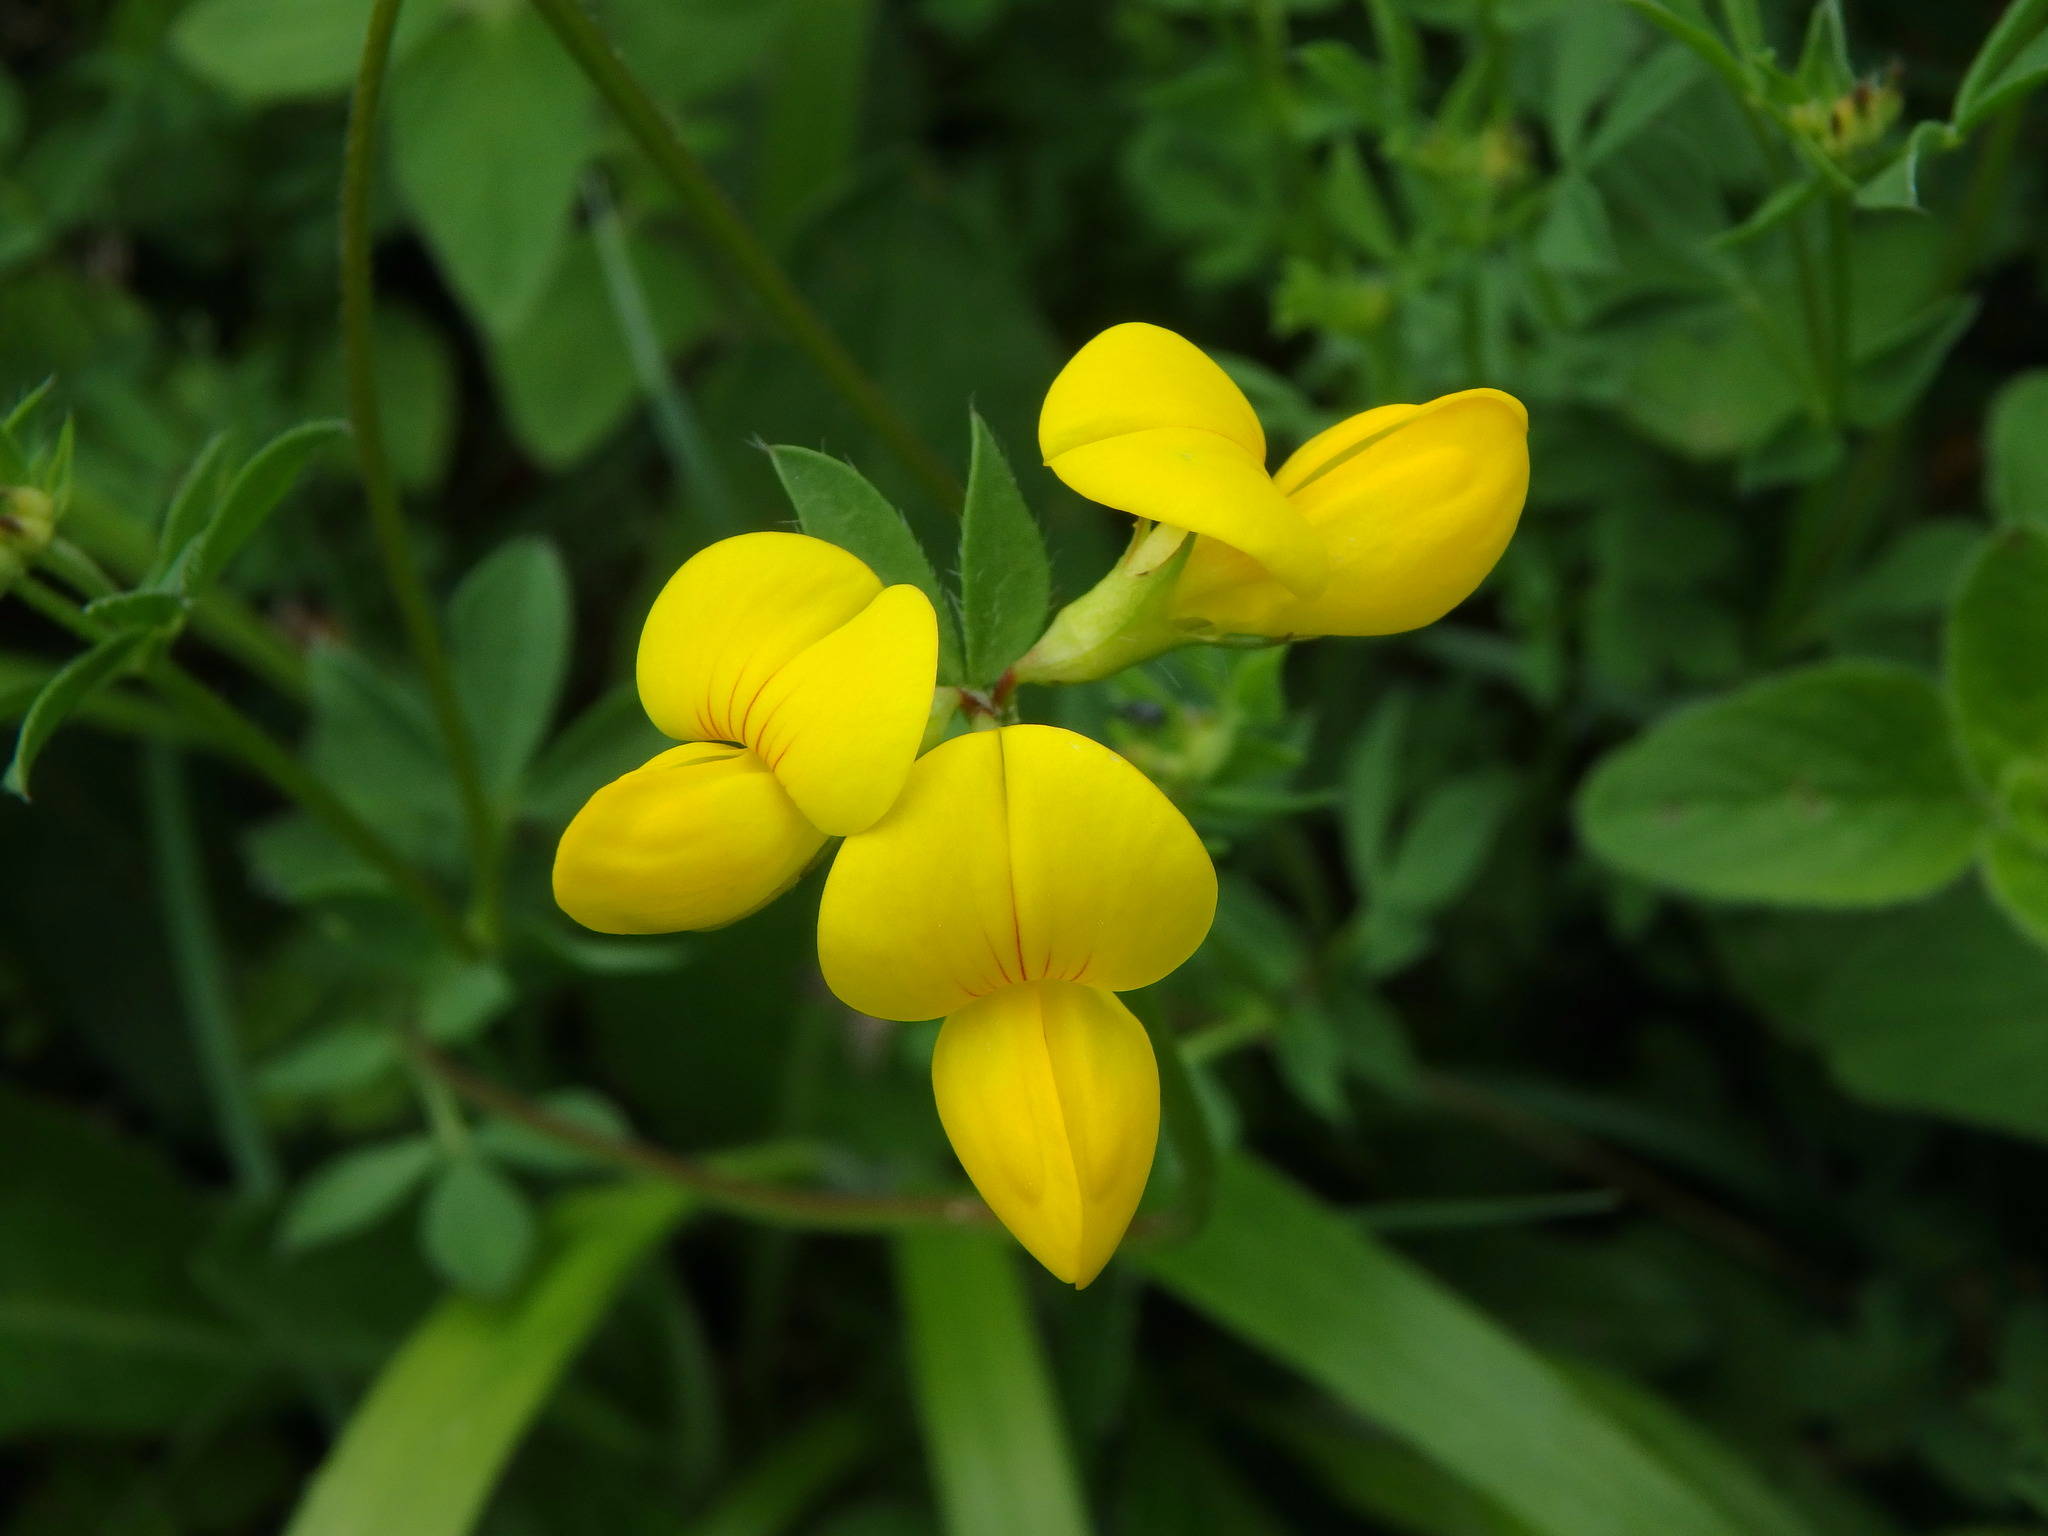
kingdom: Plantae
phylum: Tracheophyta
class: Magnoliopsida
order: Fabales
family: Fabaceae
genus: Lotus
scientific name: Lotus corniculatus
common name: Common bird's-foot-trefoil
